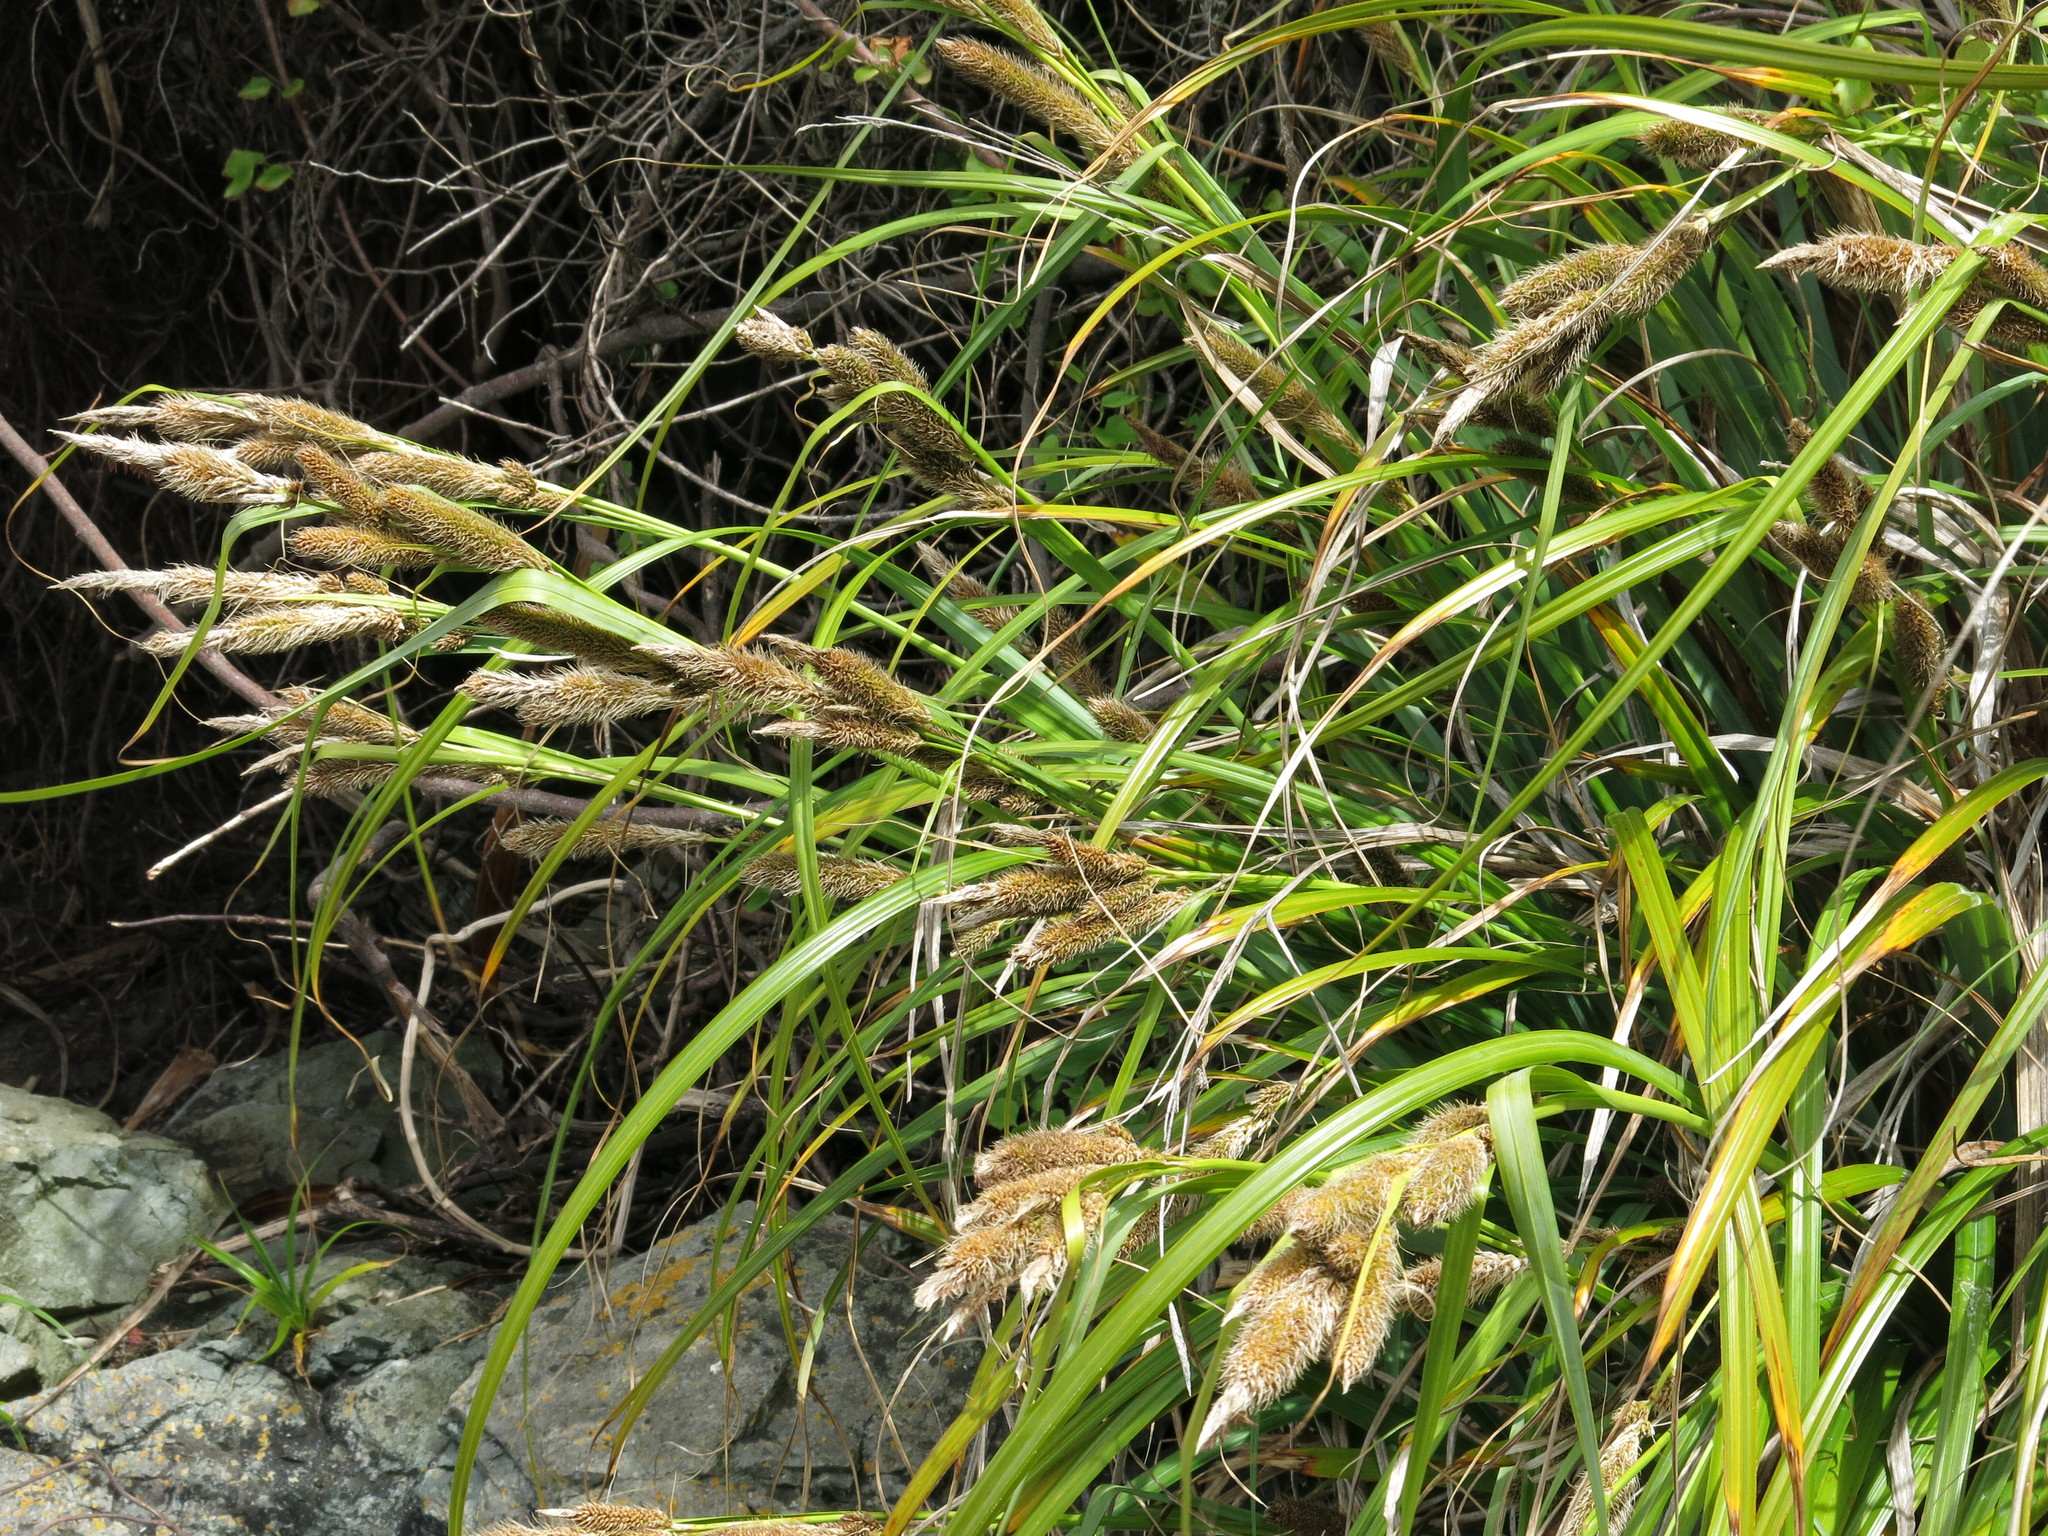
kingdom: Plantae
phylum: Tracheophyta
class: Liliopsida
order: Poales
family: Cyperaceae
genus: Carex
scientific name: Carex trifida
